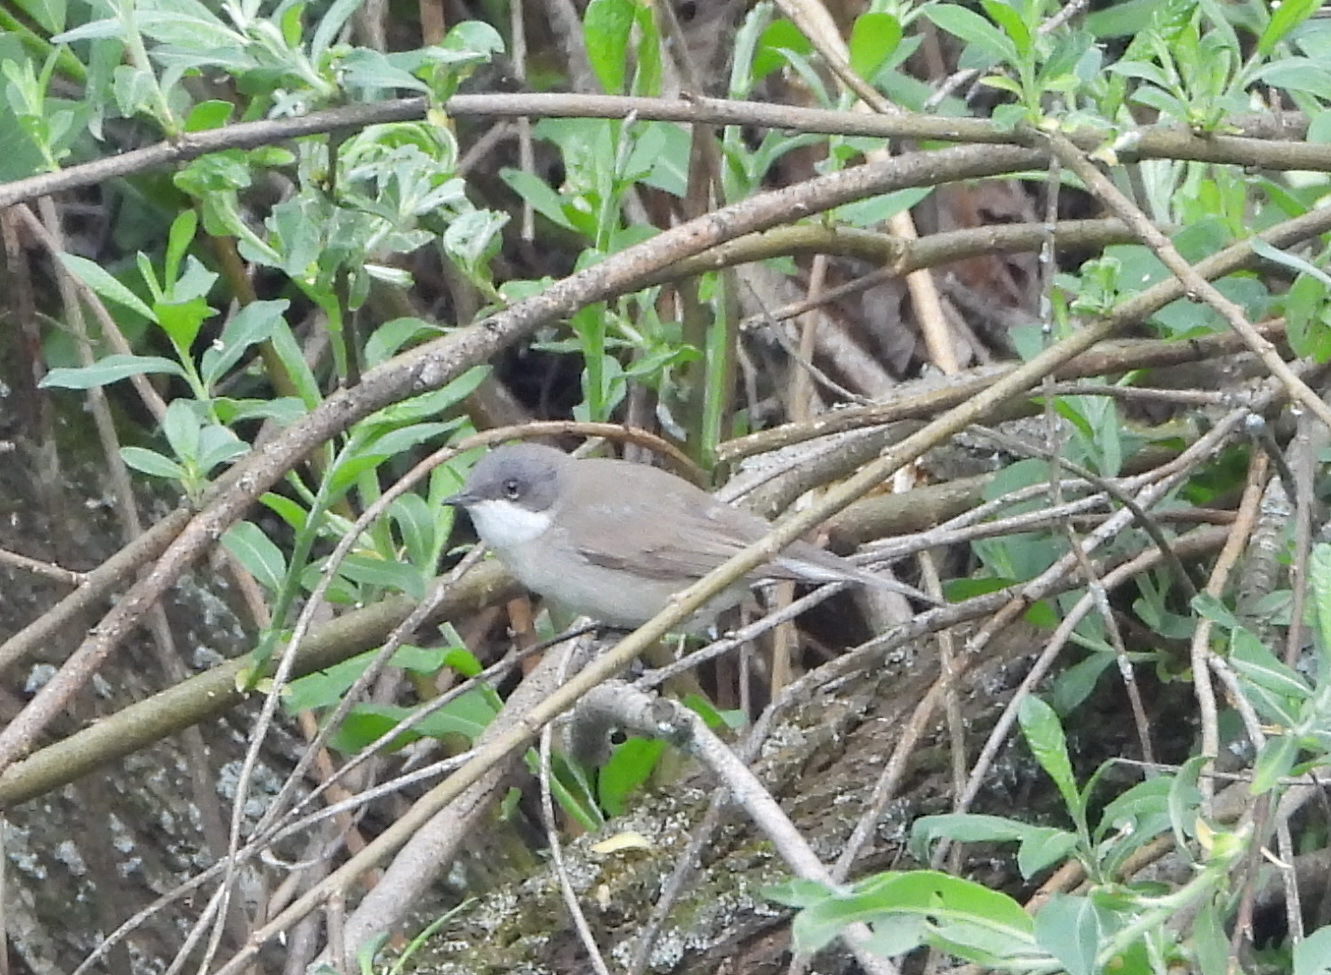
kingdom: Animalia
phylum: Chordata
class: Aves
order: Passeriformes
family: Sylviidae
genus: Sylvia
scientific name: Sylvia curruca
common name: Lesser whitethroat
